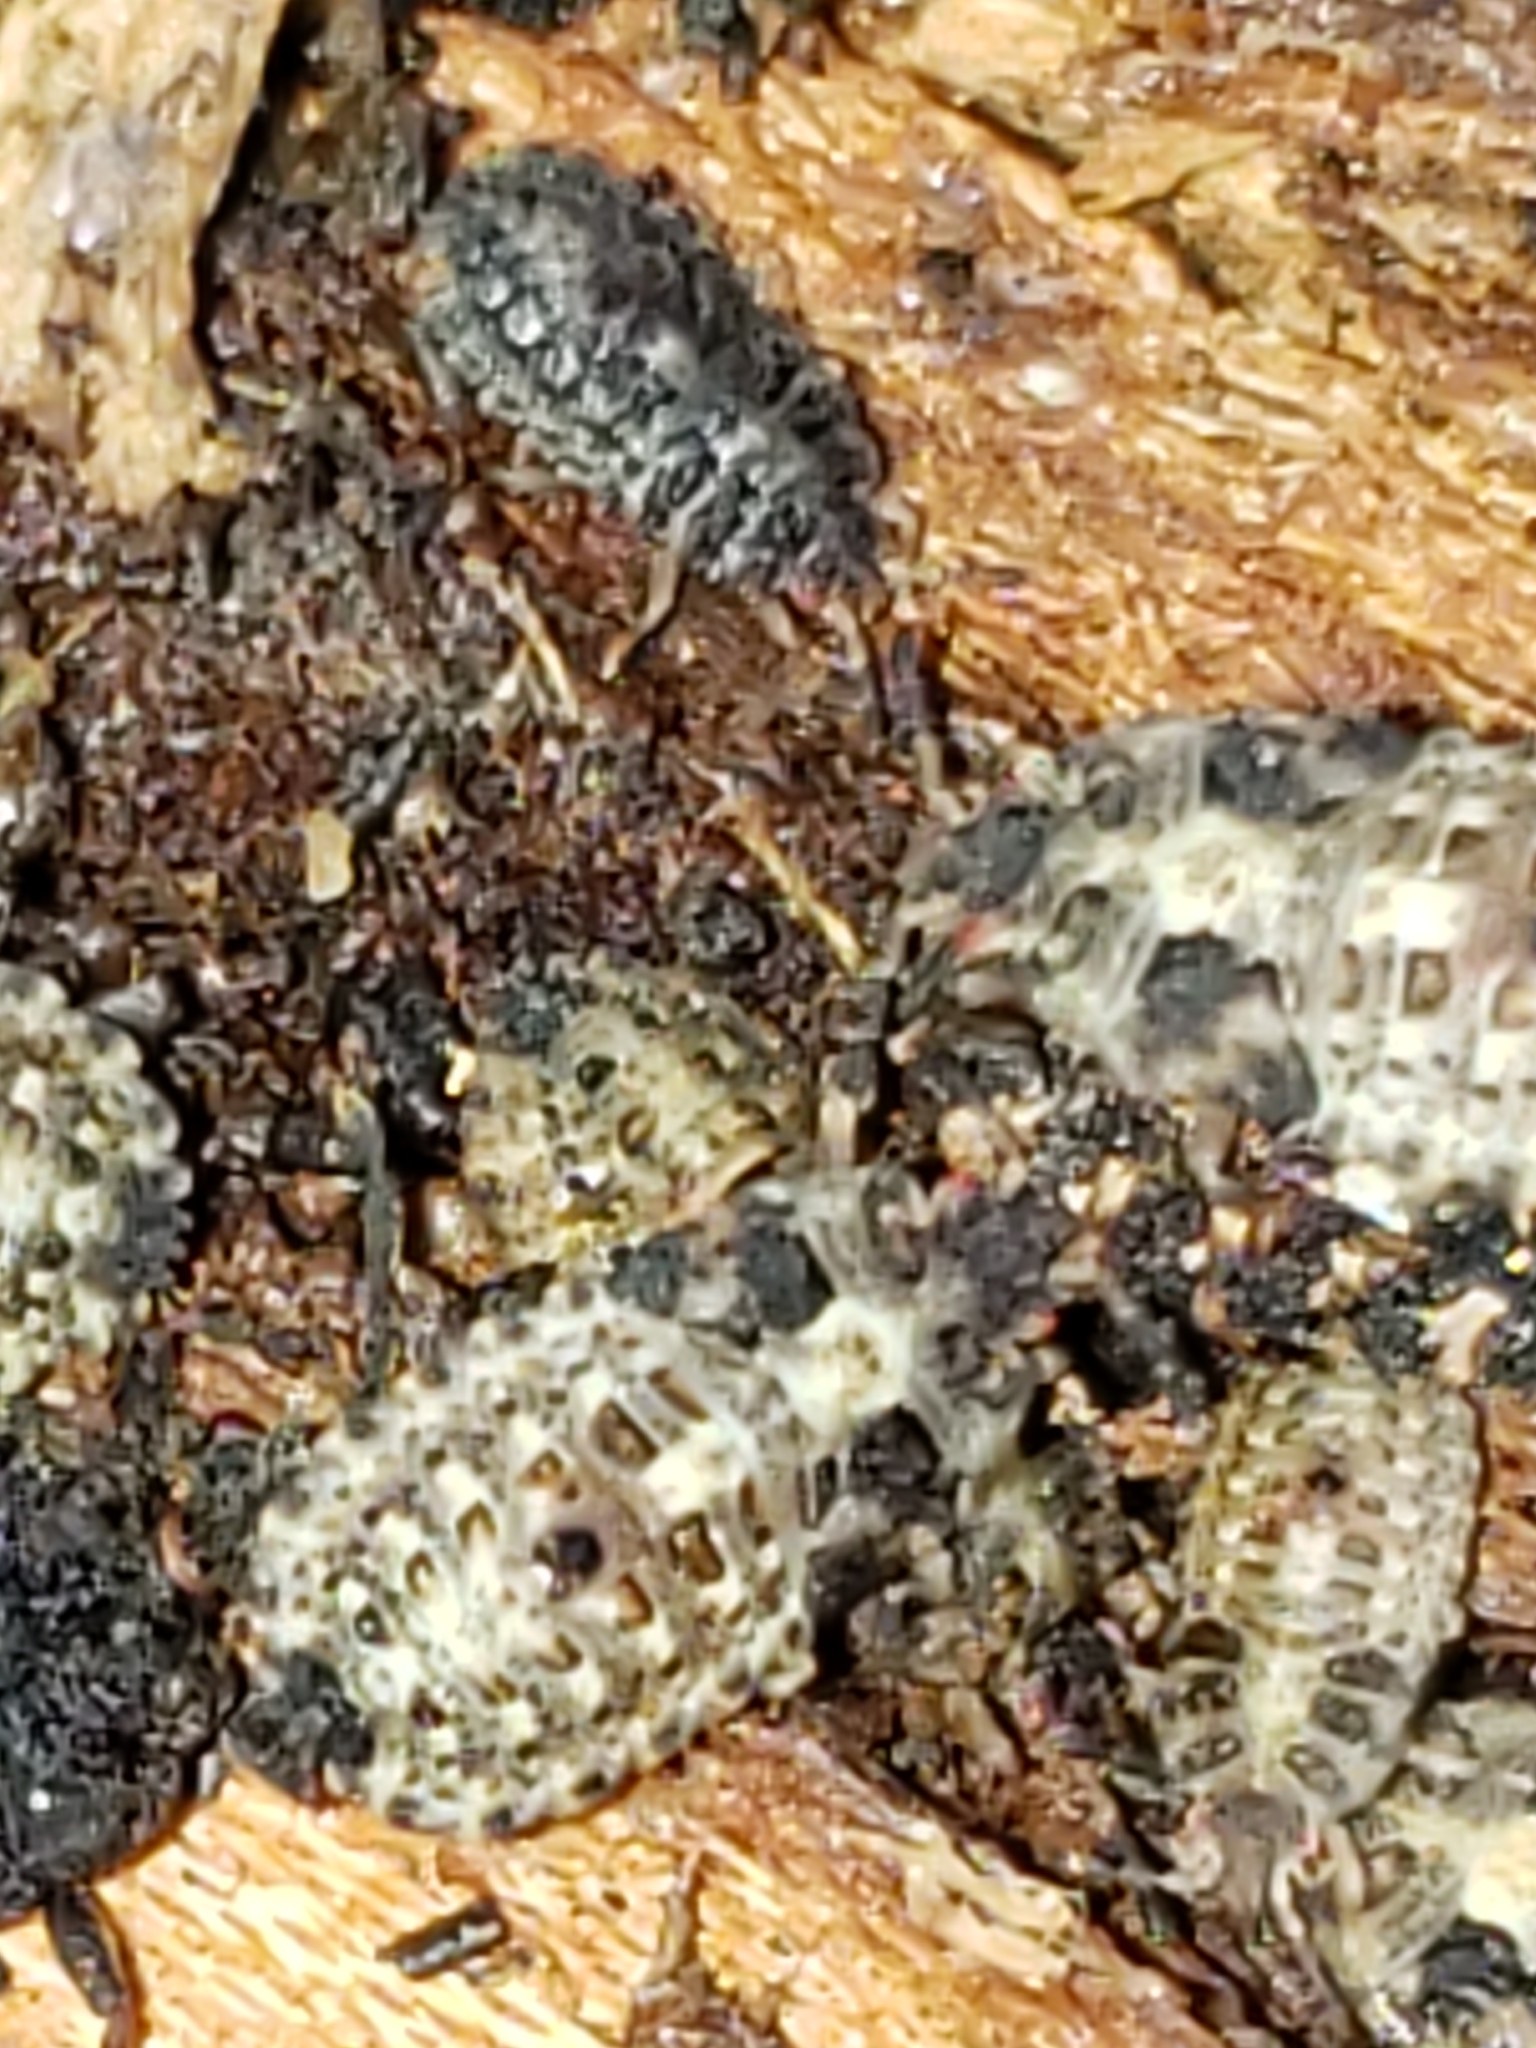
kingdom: Animalia
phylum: Arthropoda
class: Insecta
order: Hemiptera
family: Aradidae
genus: Mezira
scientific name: Mezira
